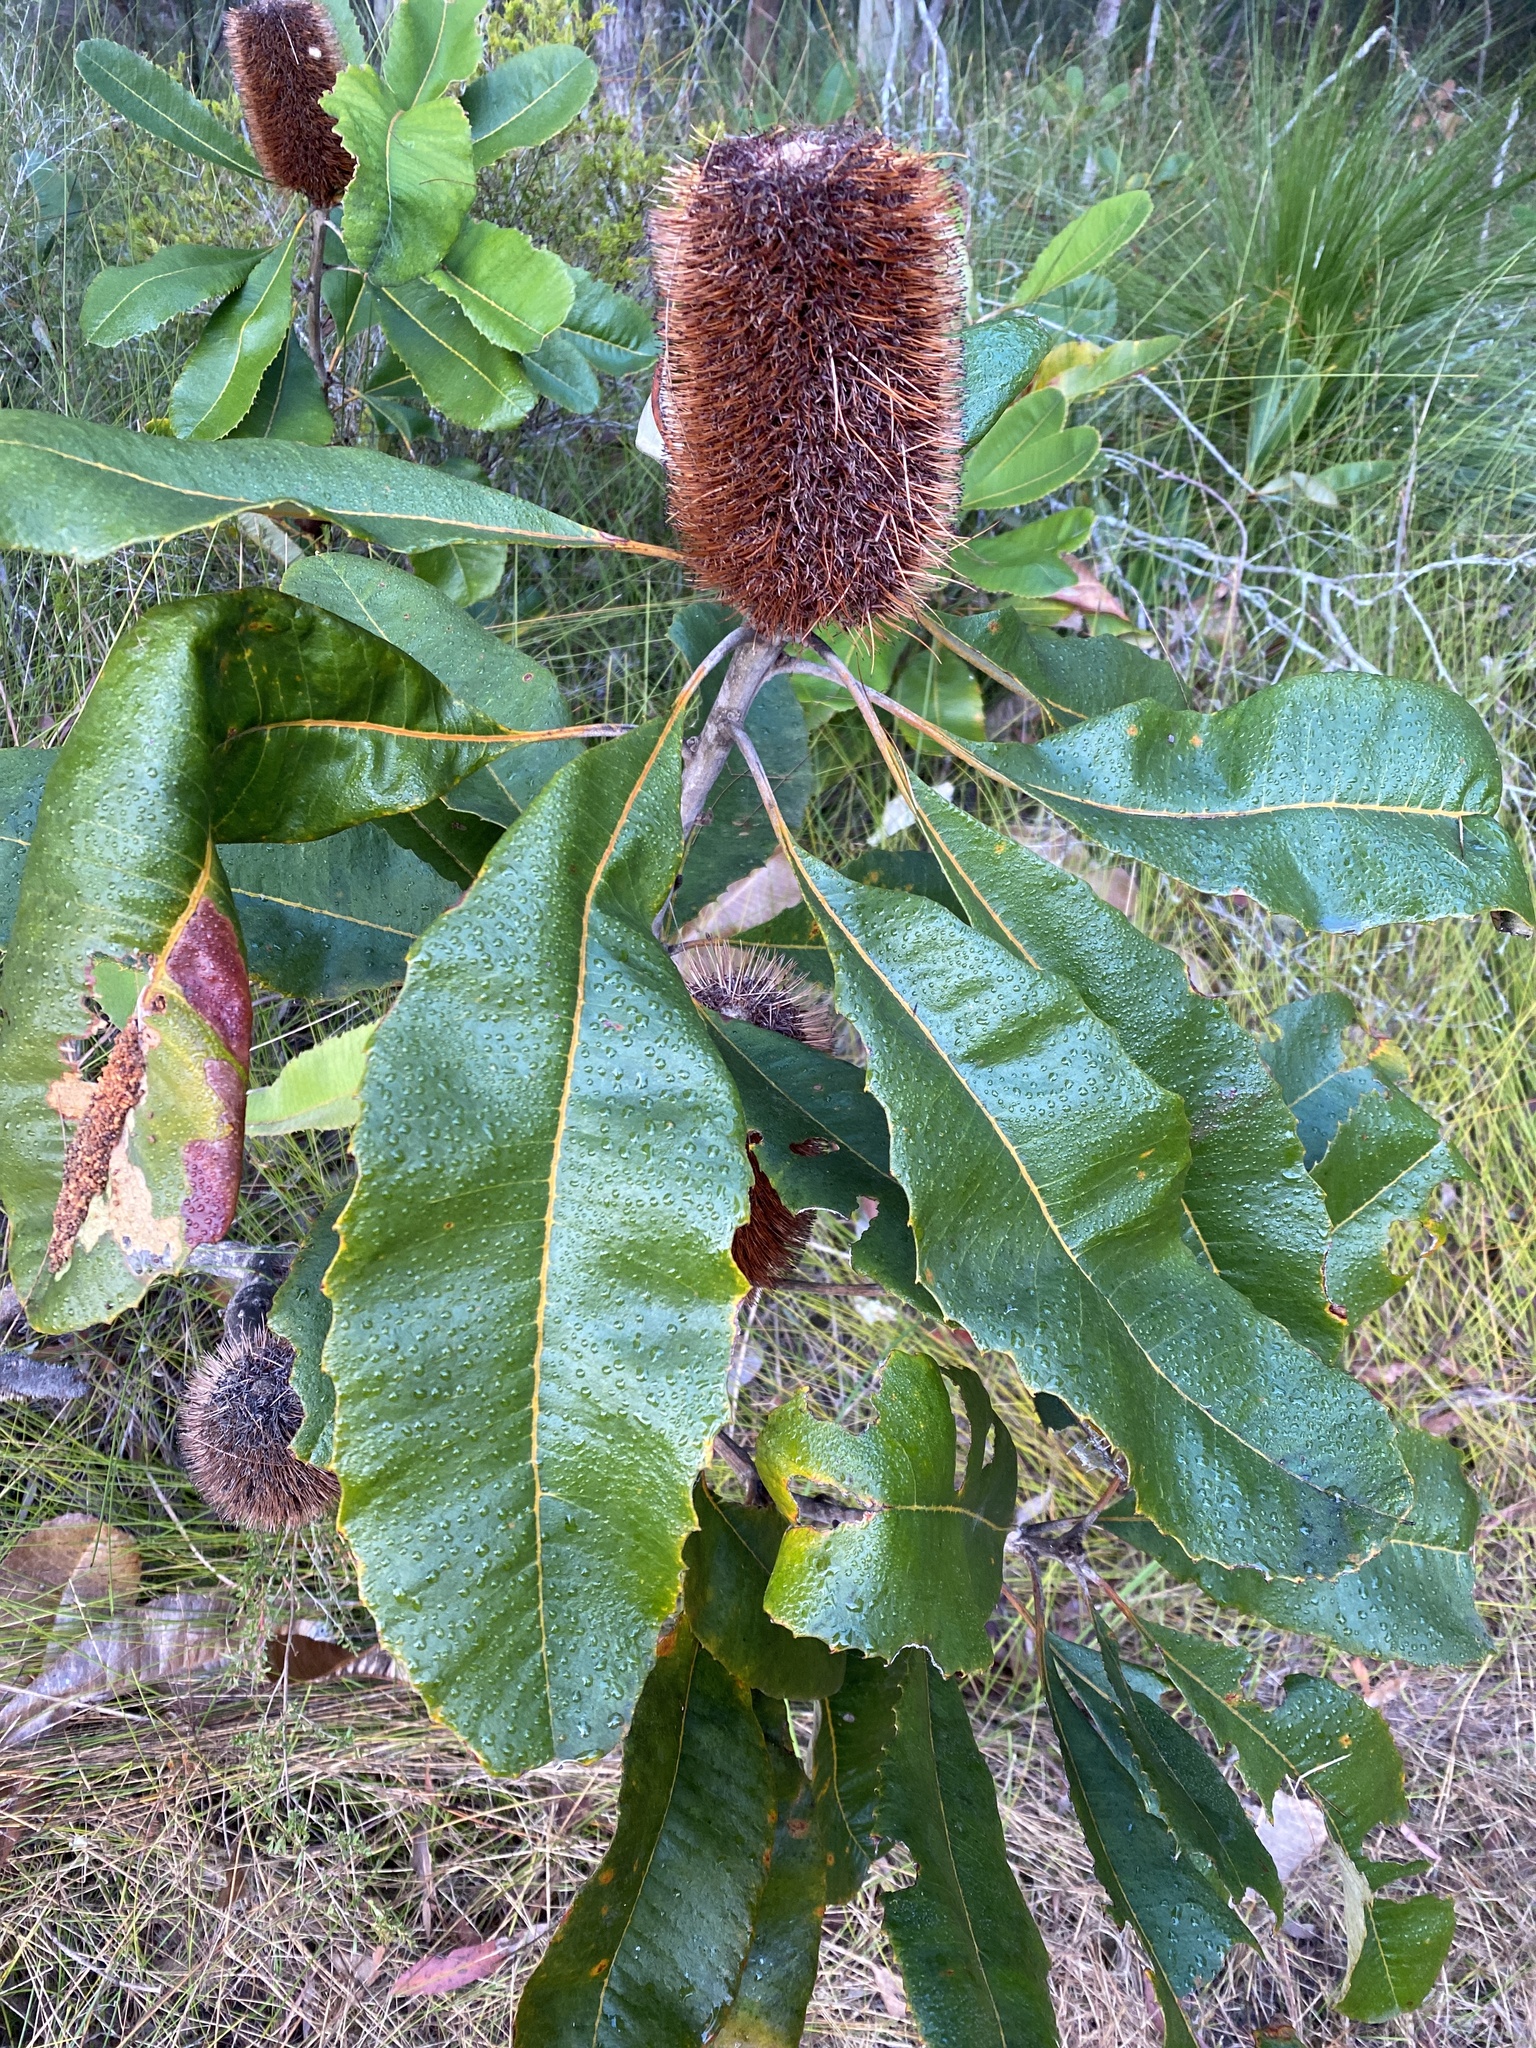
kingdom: Plantae
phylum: Tracheophyta
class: Magnoliopsida
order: Proteales
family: Proteaceae
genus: Banksia
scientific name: Banksia robur
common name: Broadleaf banksia
